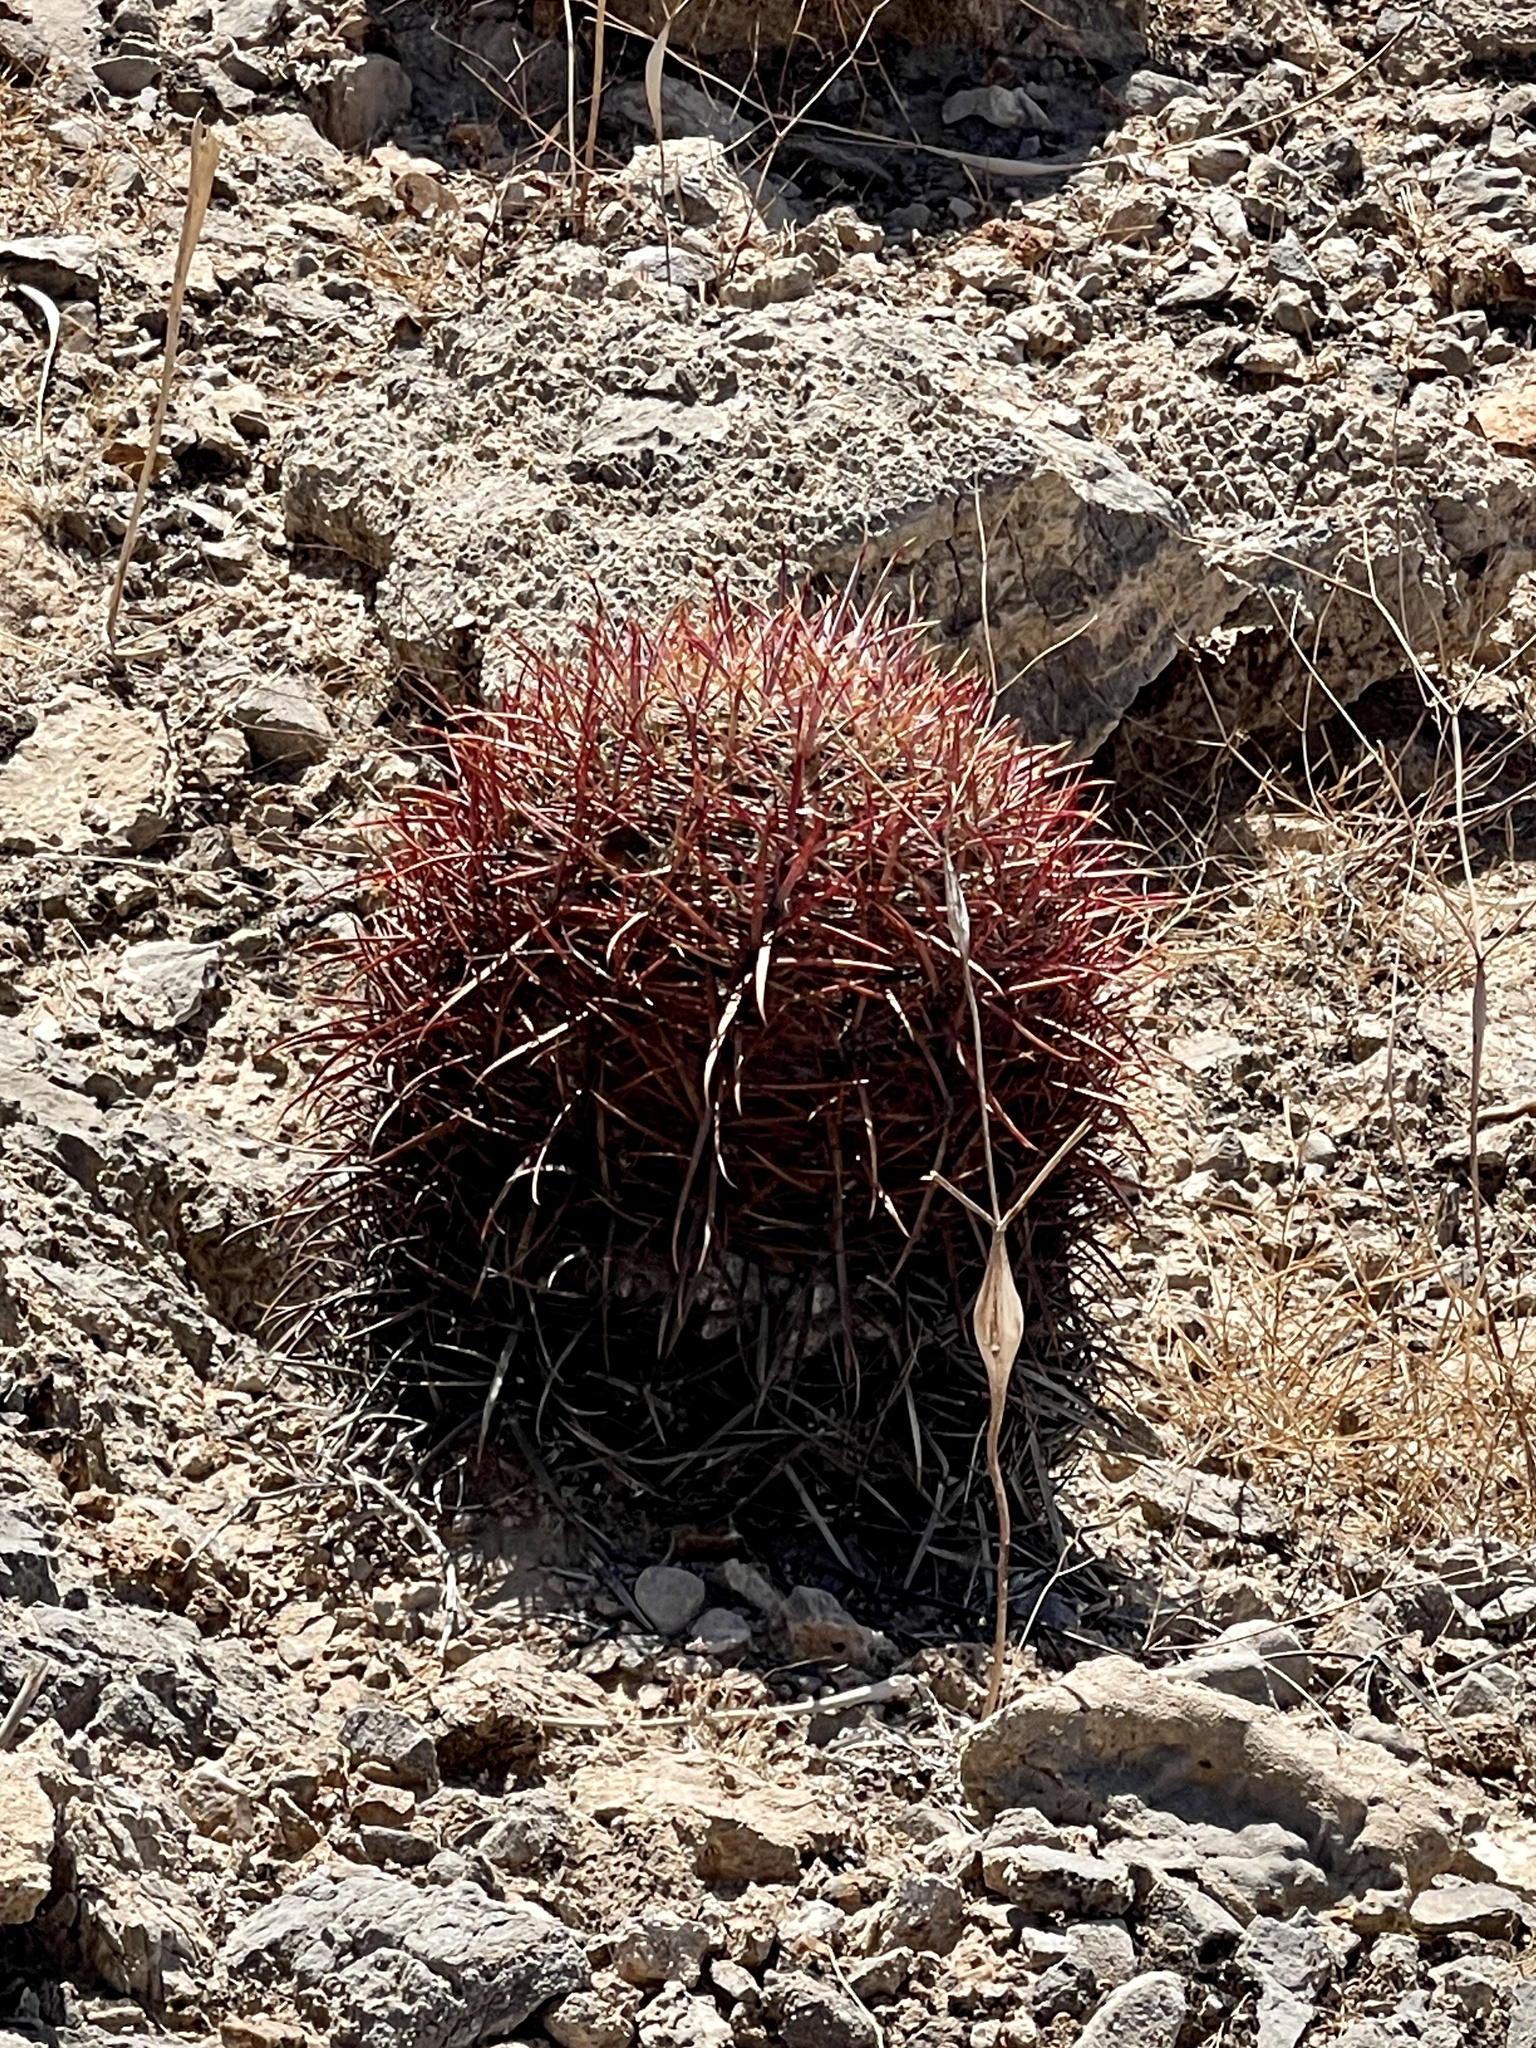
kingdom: Plantae
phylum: Tracheophyta
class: Magnoliopsida
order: Caryophyllales
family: Cactaceae
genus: Ferocactus
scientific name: Ferocactus cylindraceus
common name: California barrel cactus
